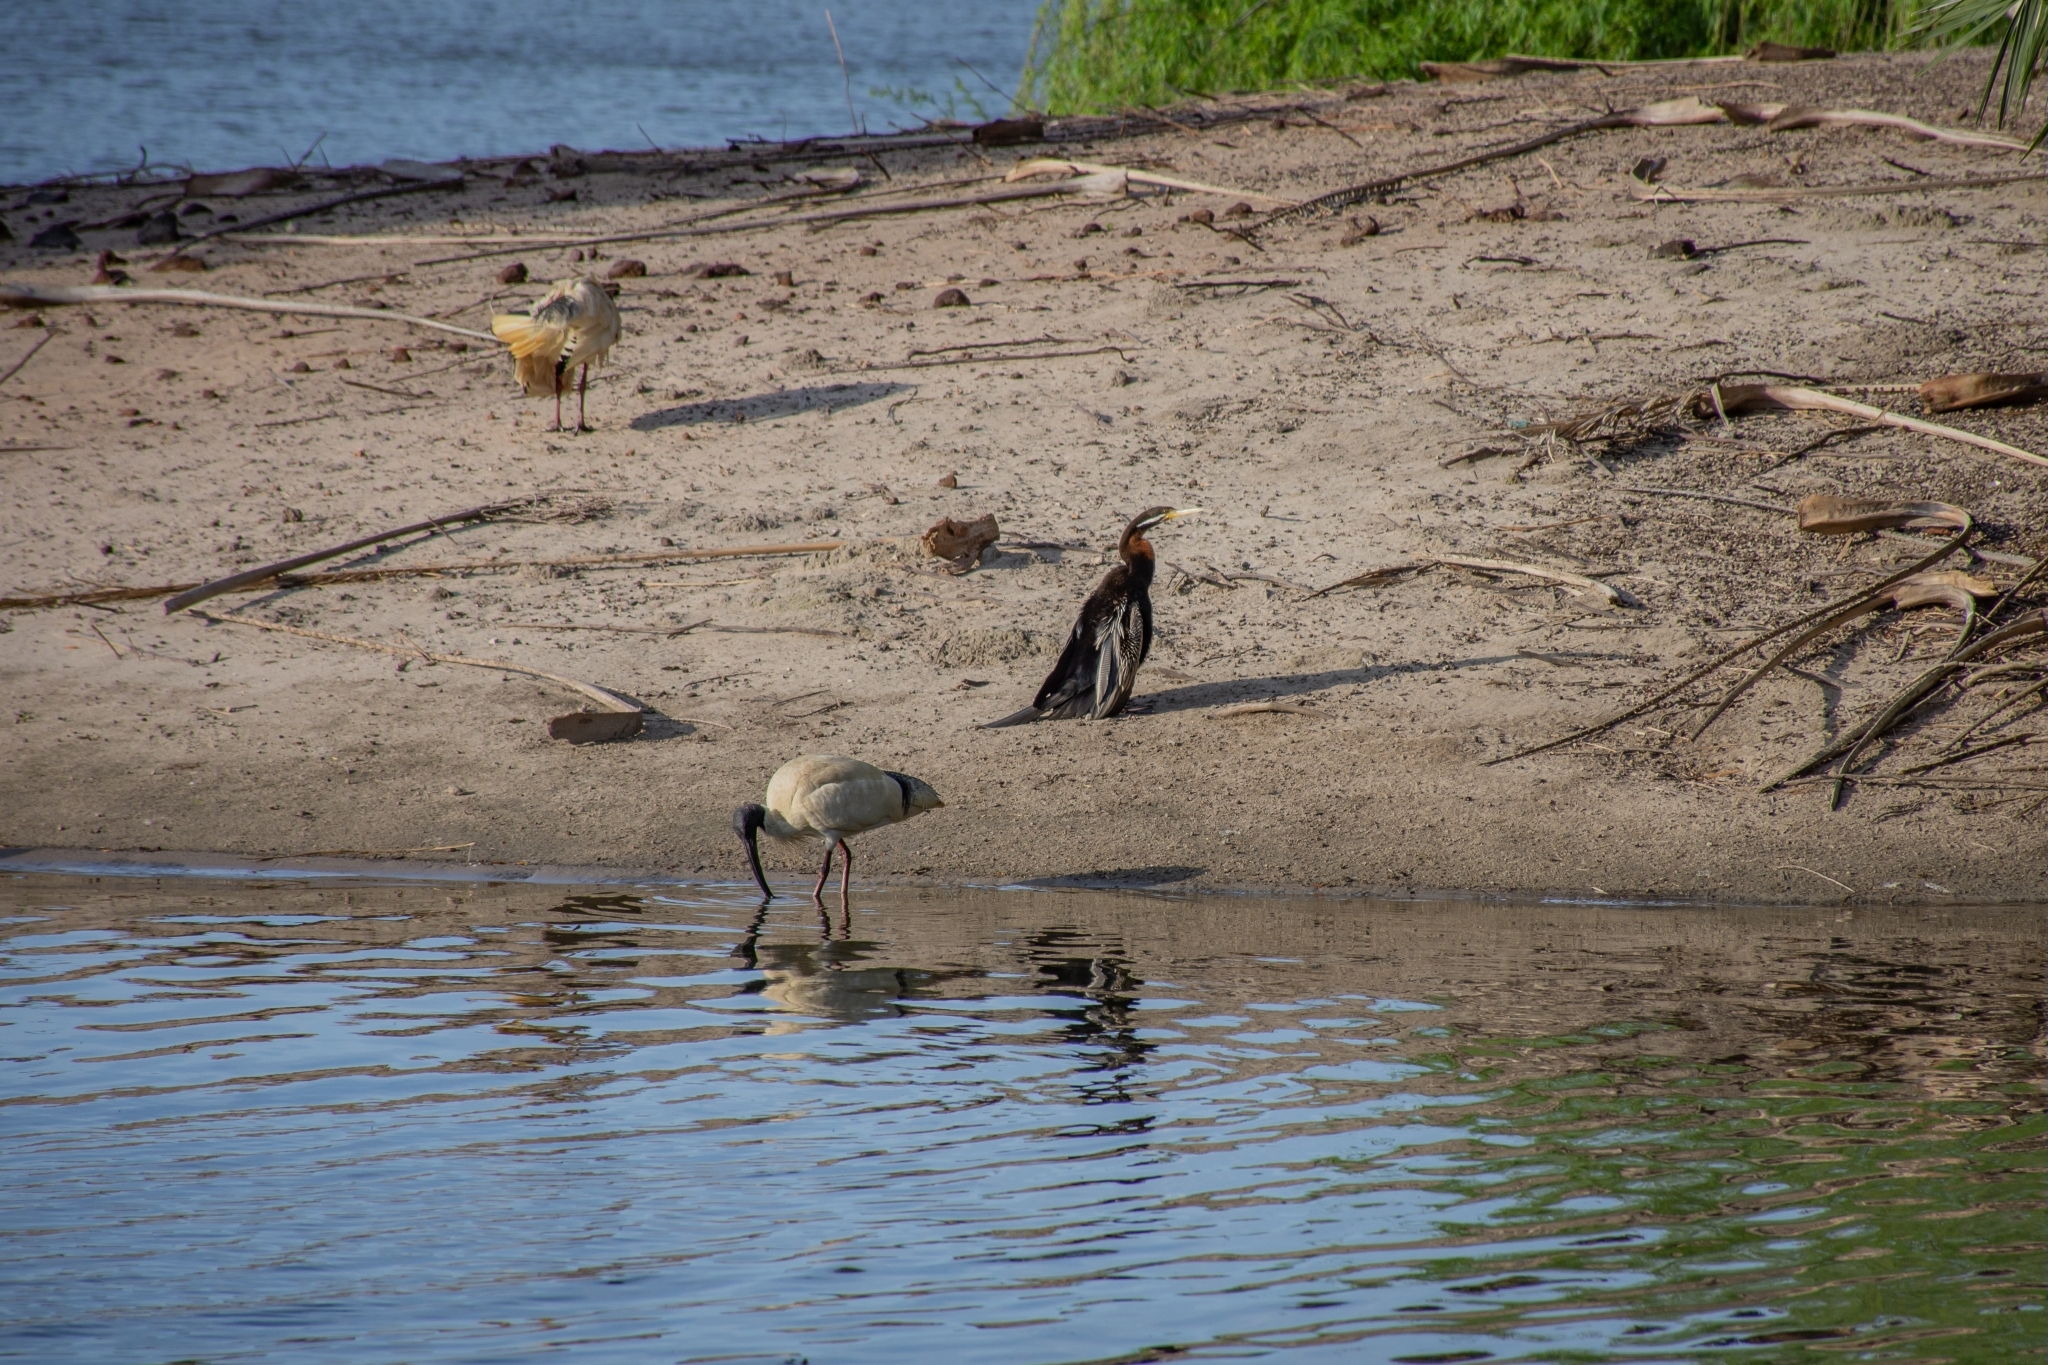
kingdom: Animalia
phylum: Chordata
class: Aves
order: Suliformes
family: Anhingidae
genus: Anhinga
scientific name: Anhinga novaehollandiae
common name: Australasian darter
